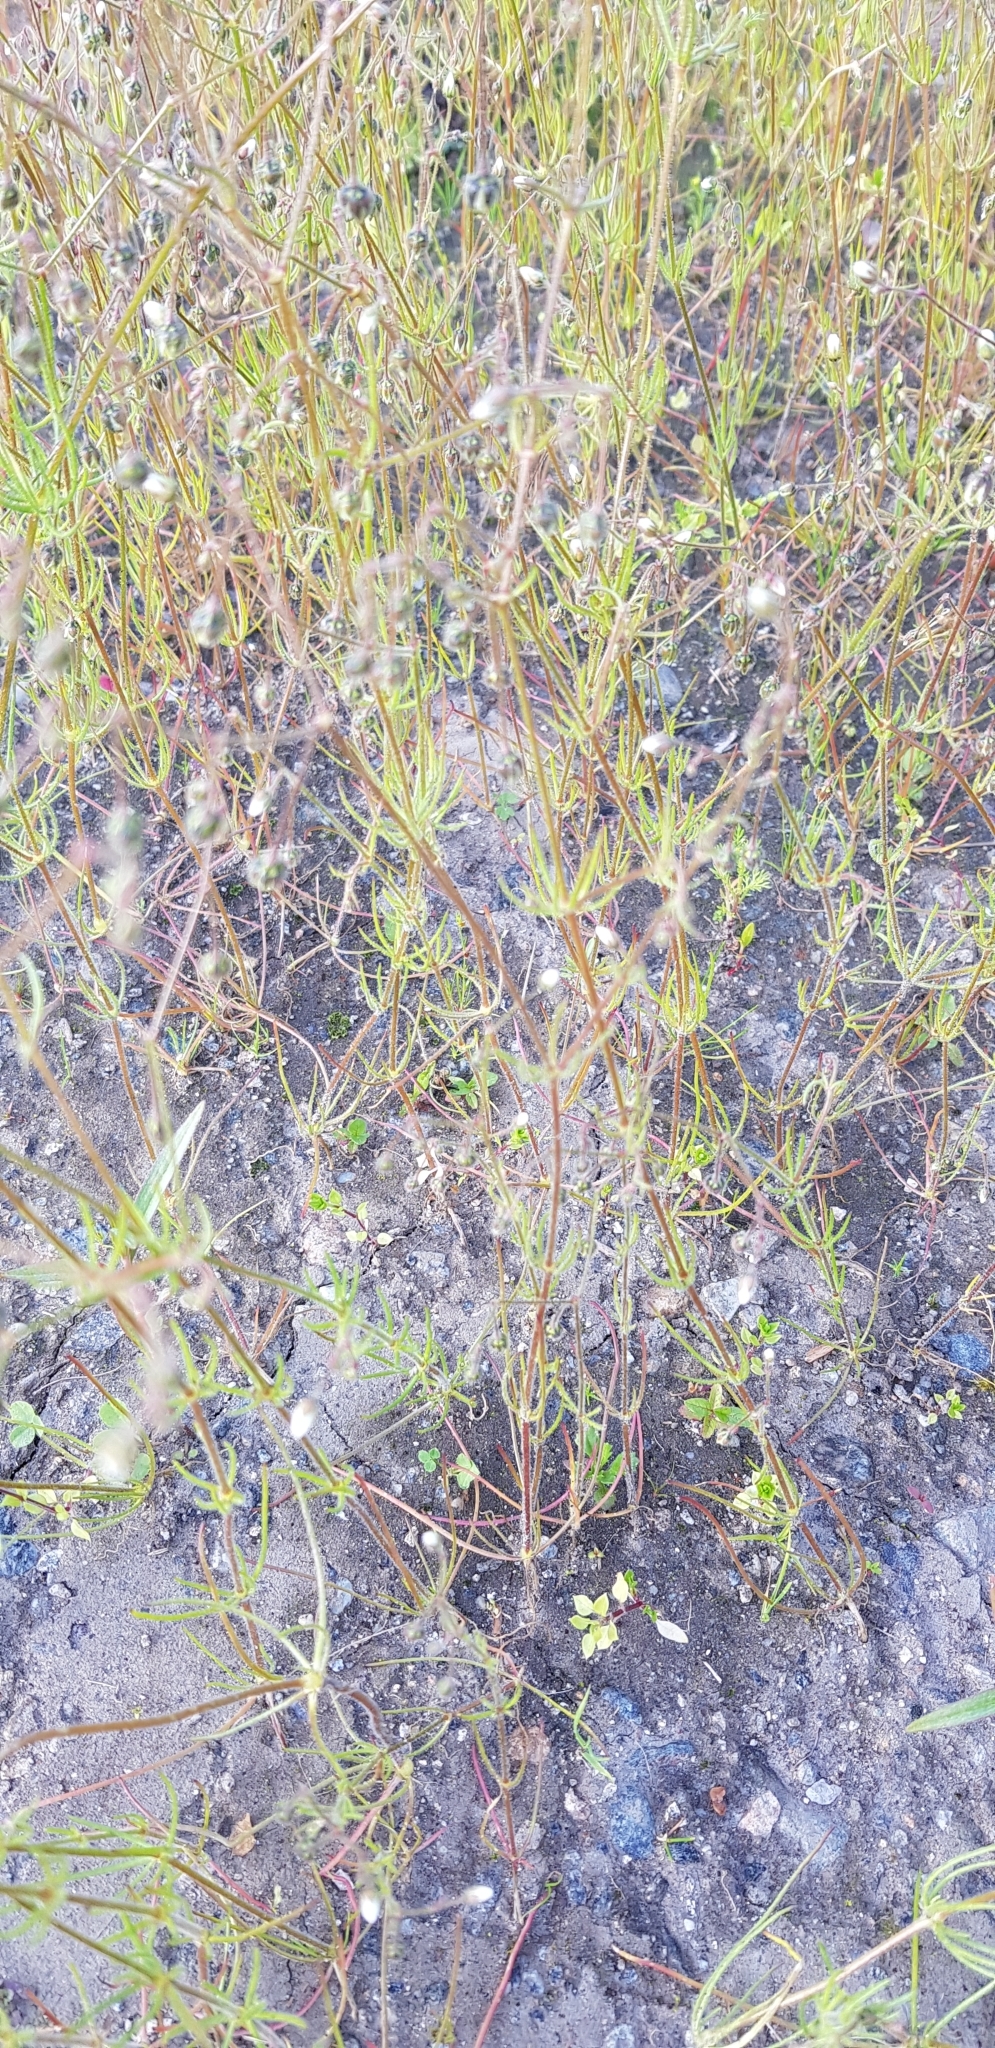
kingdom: Plantae
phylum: Tracheophyta
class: Magnoliopsida
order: Caryophyllales
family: Caryophyllaceae
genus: Spergula
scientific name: Spergula arvensis
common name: Corn spurrey
